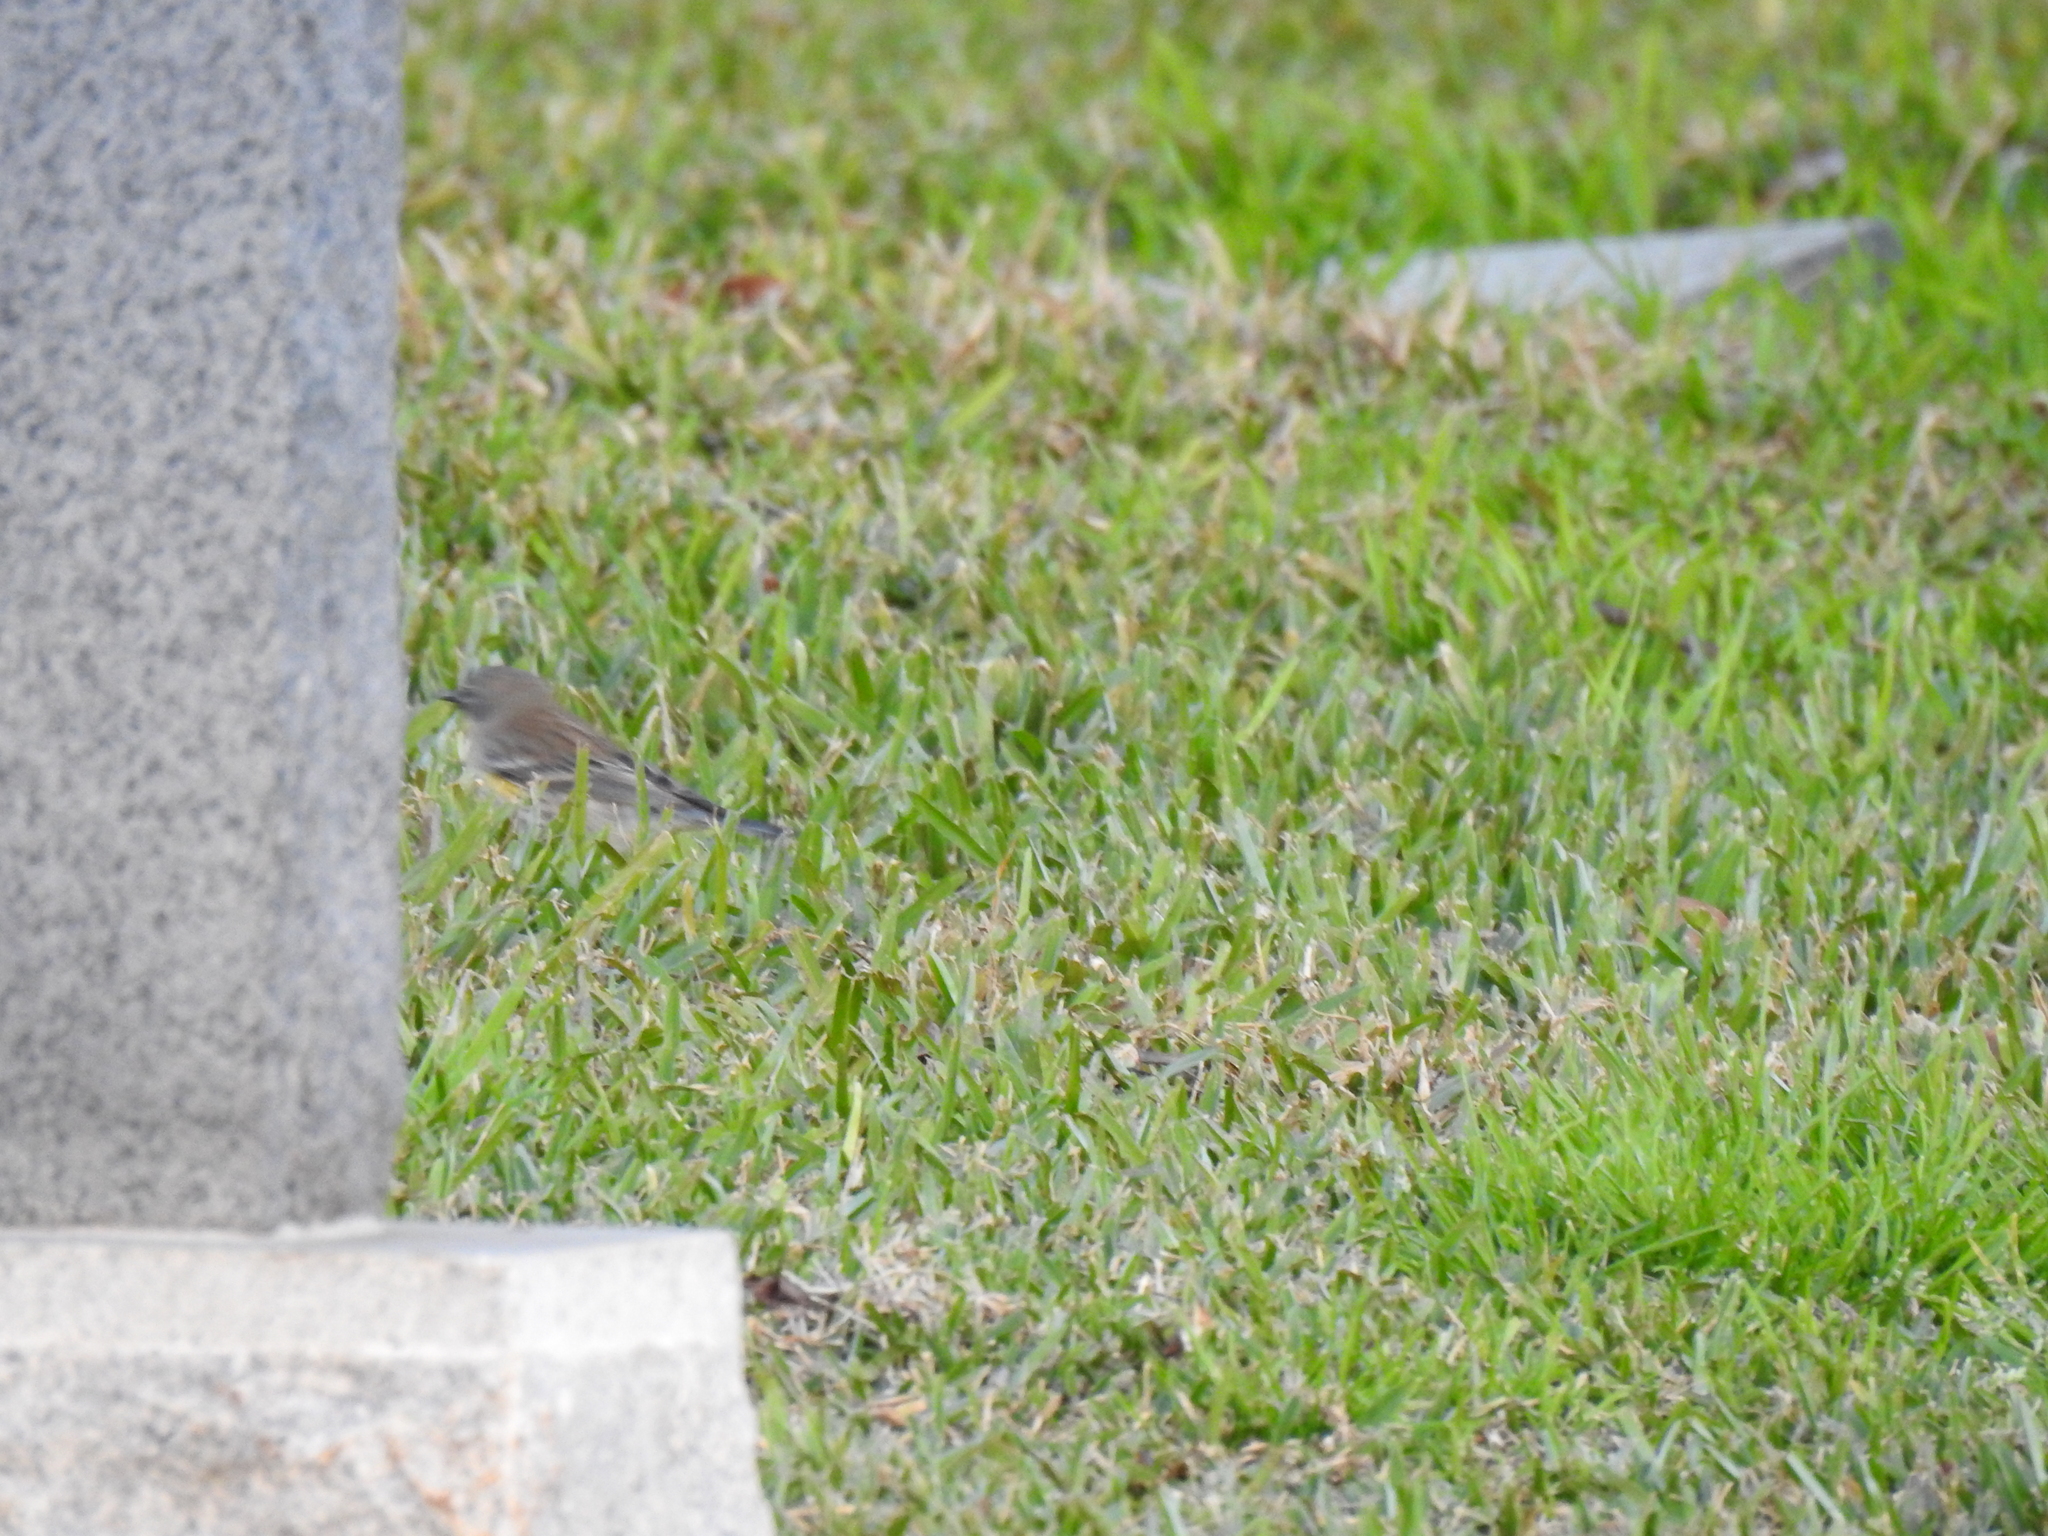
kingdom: Animalia
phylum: Chordata
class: Aves
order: Passeriformes
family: Parulidae
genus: Setophaga
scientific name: Setophaga coronata
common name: Myrtle warbler
